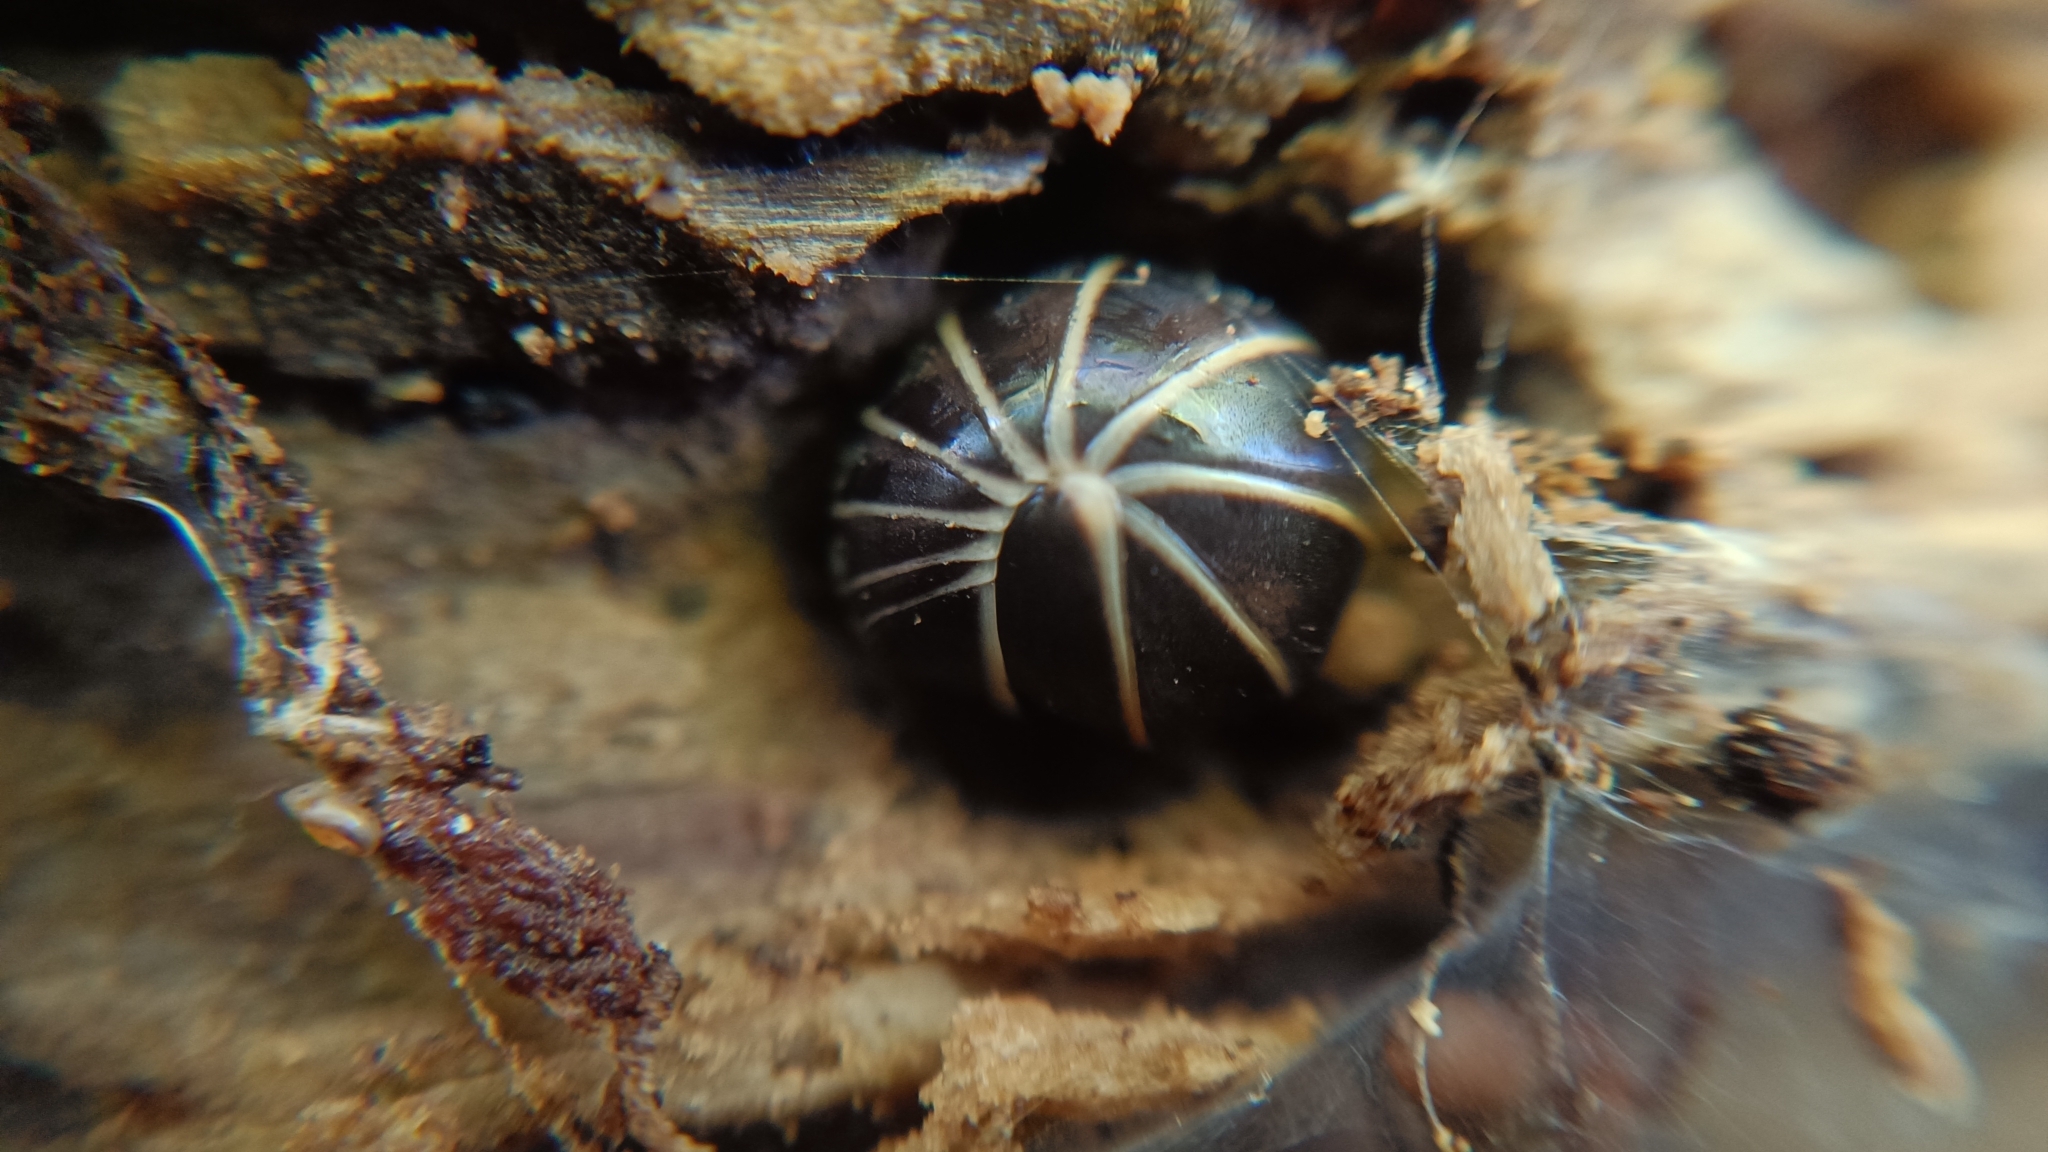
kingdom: Animalia
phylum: Arthropoda
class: Diplopoda
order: Glomerida
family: Glomeridae
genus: Glomeris
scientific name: Glomeris marginata
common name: Bordered pill millipede
